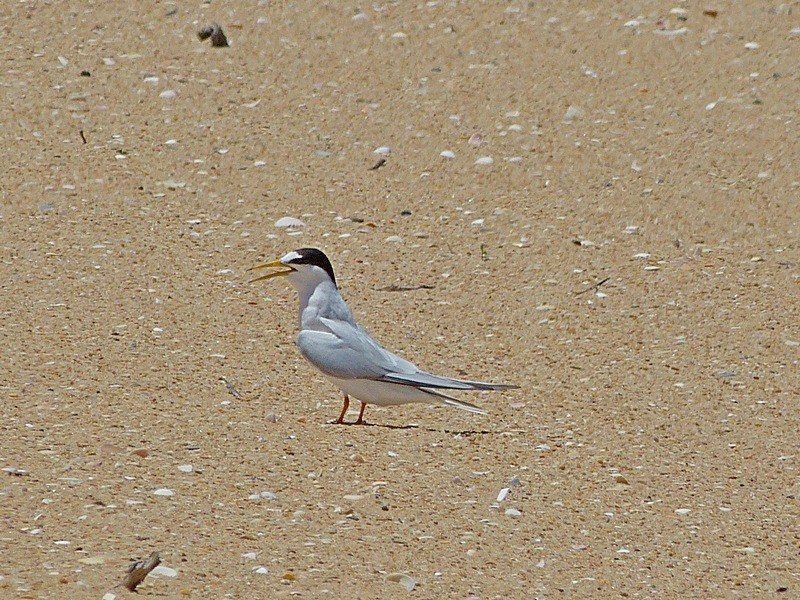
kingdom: Animalia
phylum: Chordata
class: Aves
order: Charadriiformes
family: Laridae
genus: Sternula
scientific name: Sternula albifrons
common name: Little tern
